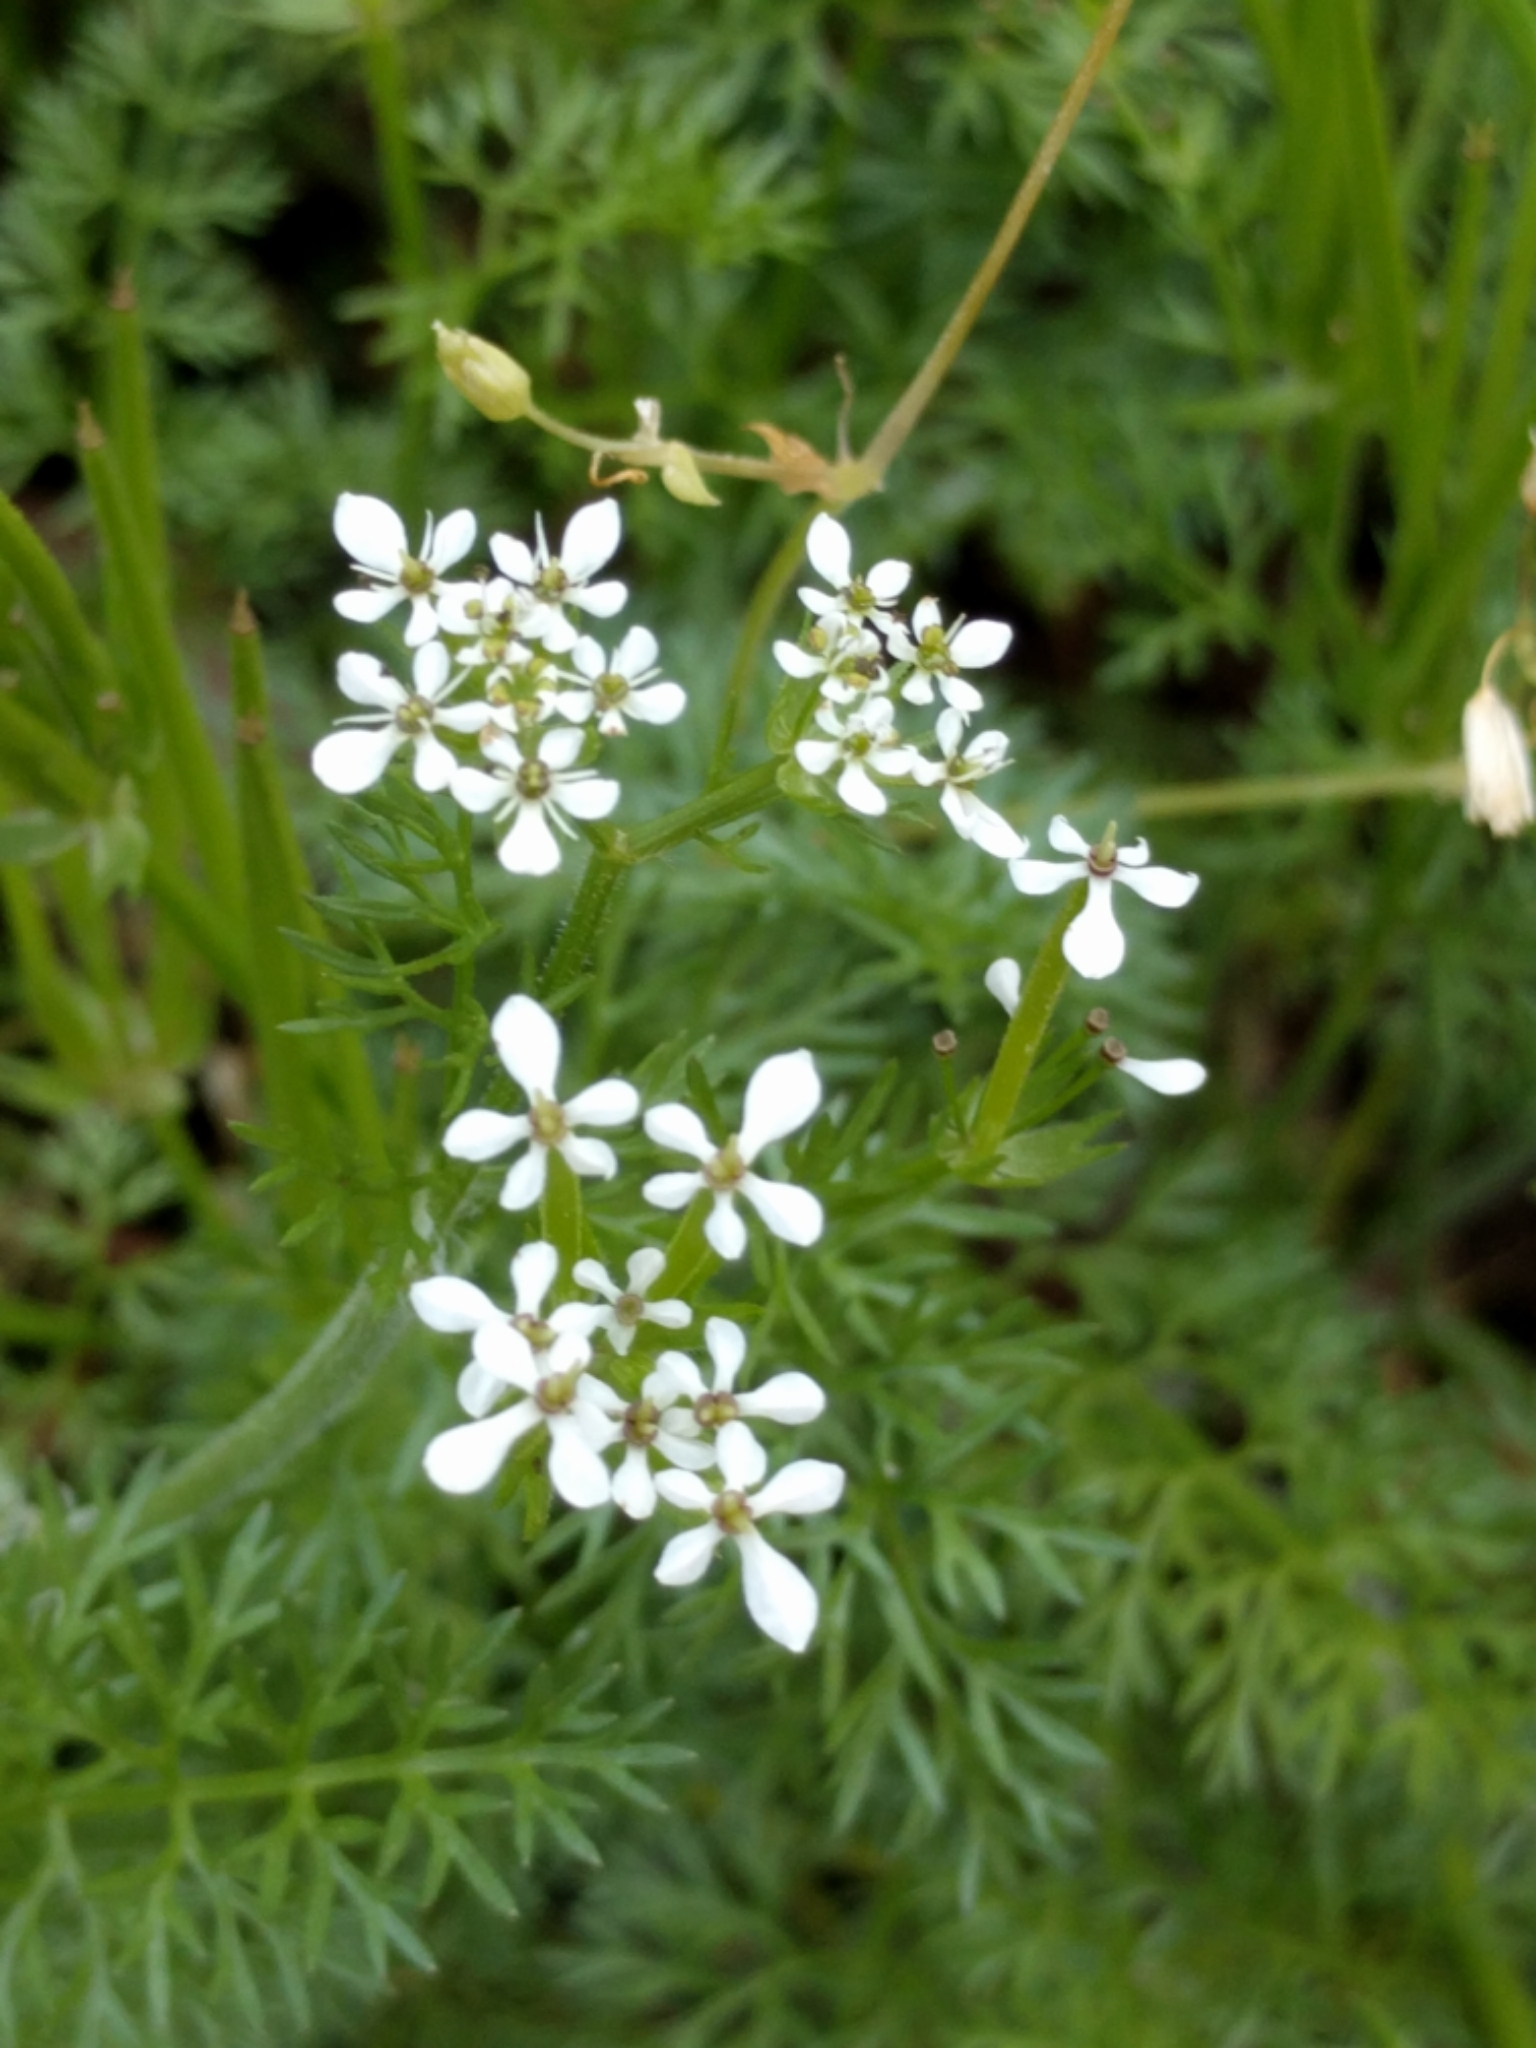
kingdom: Plantae
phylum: Tracheophyta
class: Magnoliopsida
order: Apiales
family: Apiaceae
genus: Scandix
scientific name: Scandix pecten-veneris
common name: Shepherd's-needle
